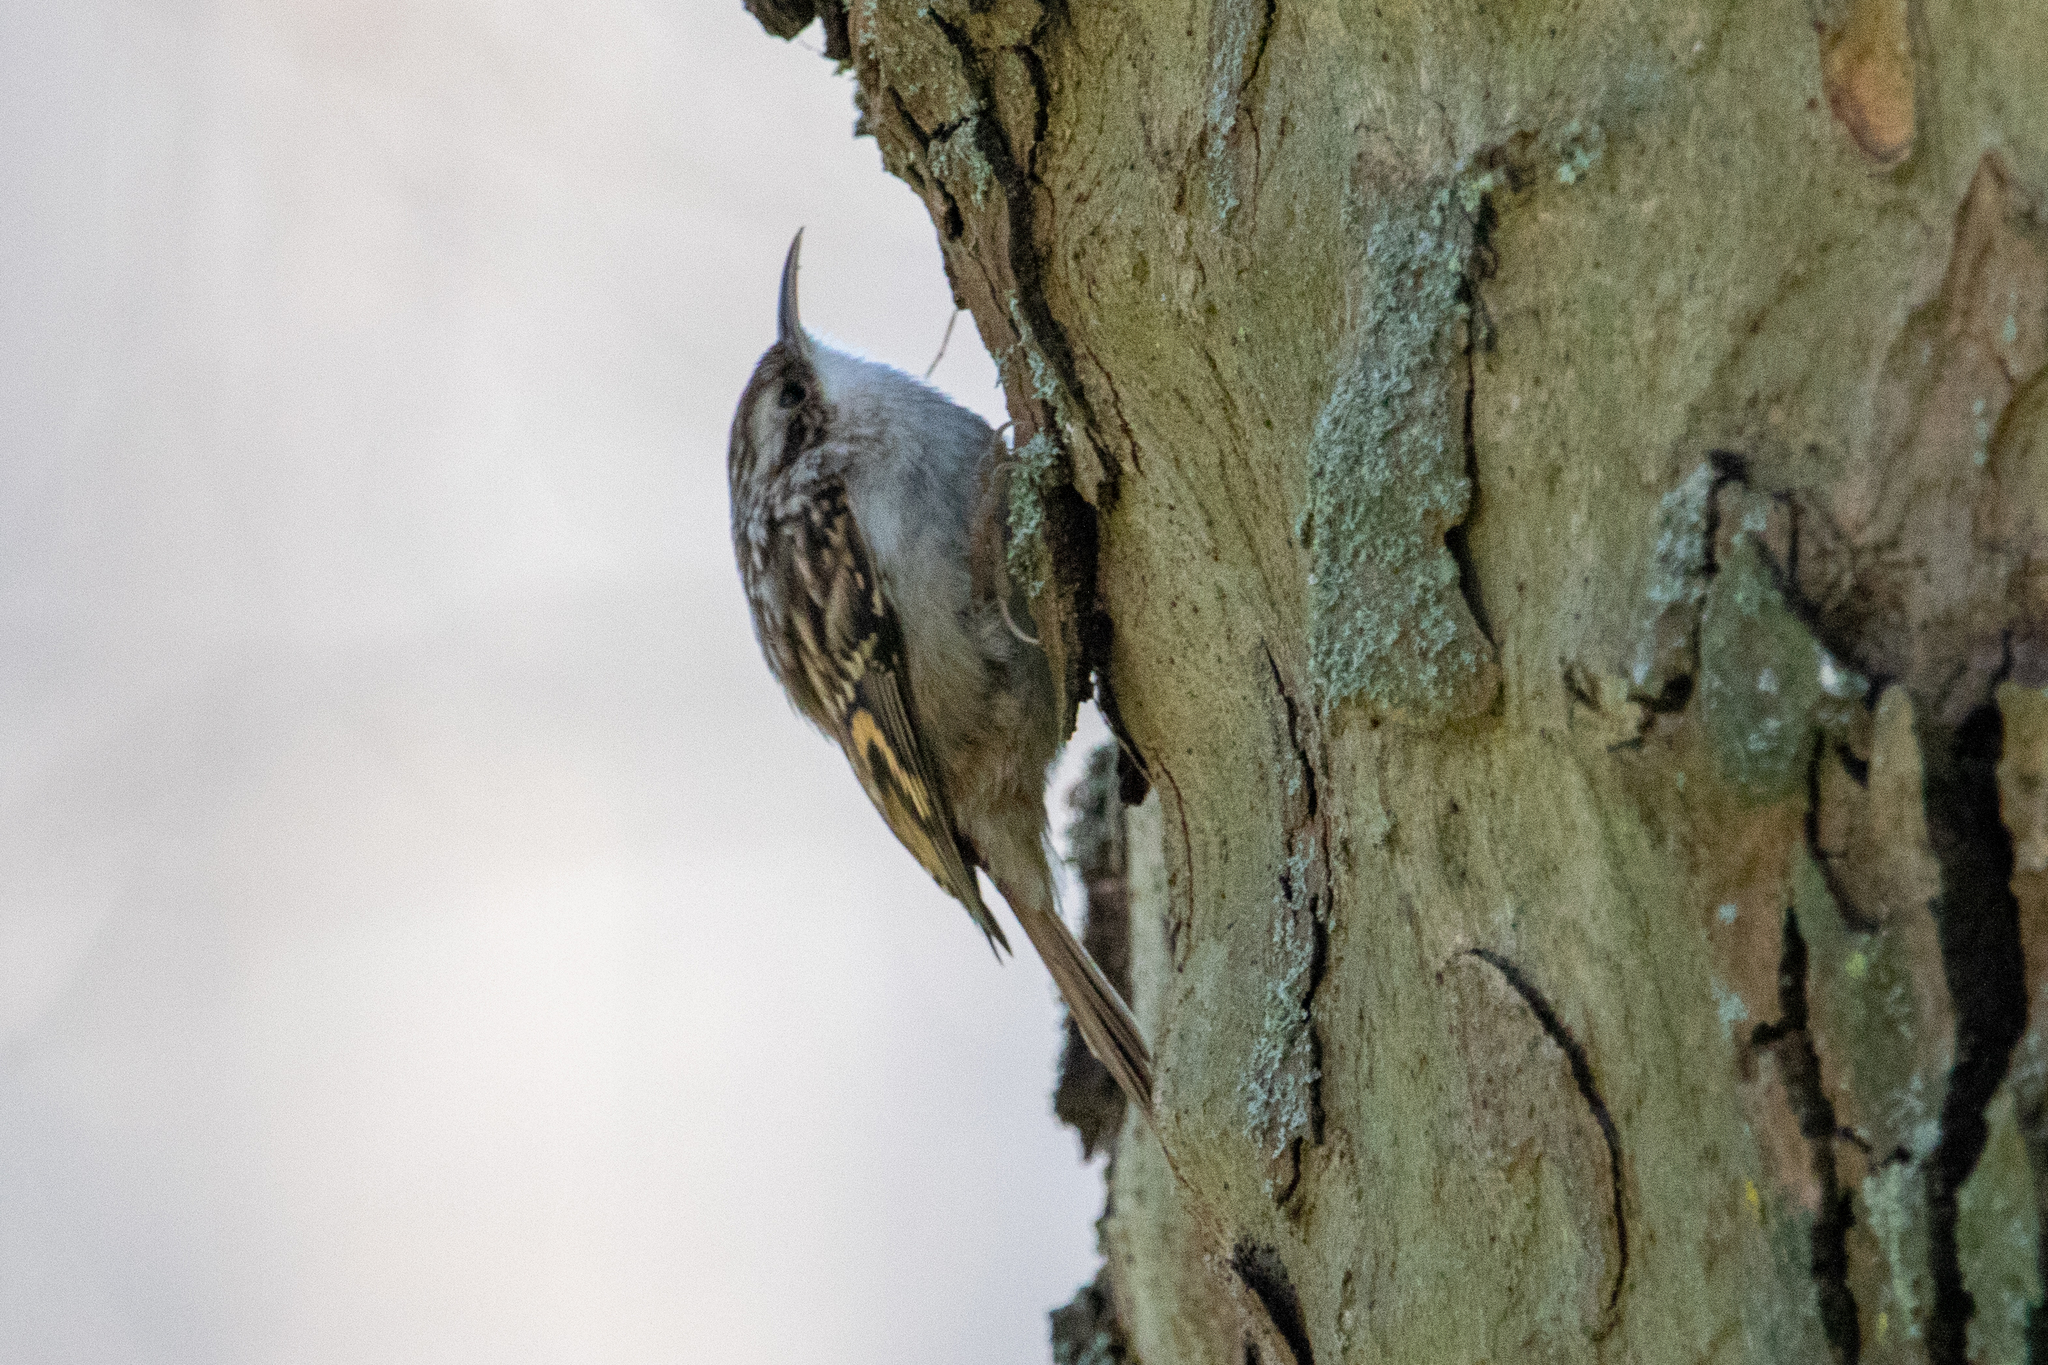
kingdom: Animalia
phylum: Chordata
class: Aves
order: Passeriformes
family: Certhiidae
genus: Certhia
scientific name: Certhia brachydactyla
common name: Short-toed treecreeper
